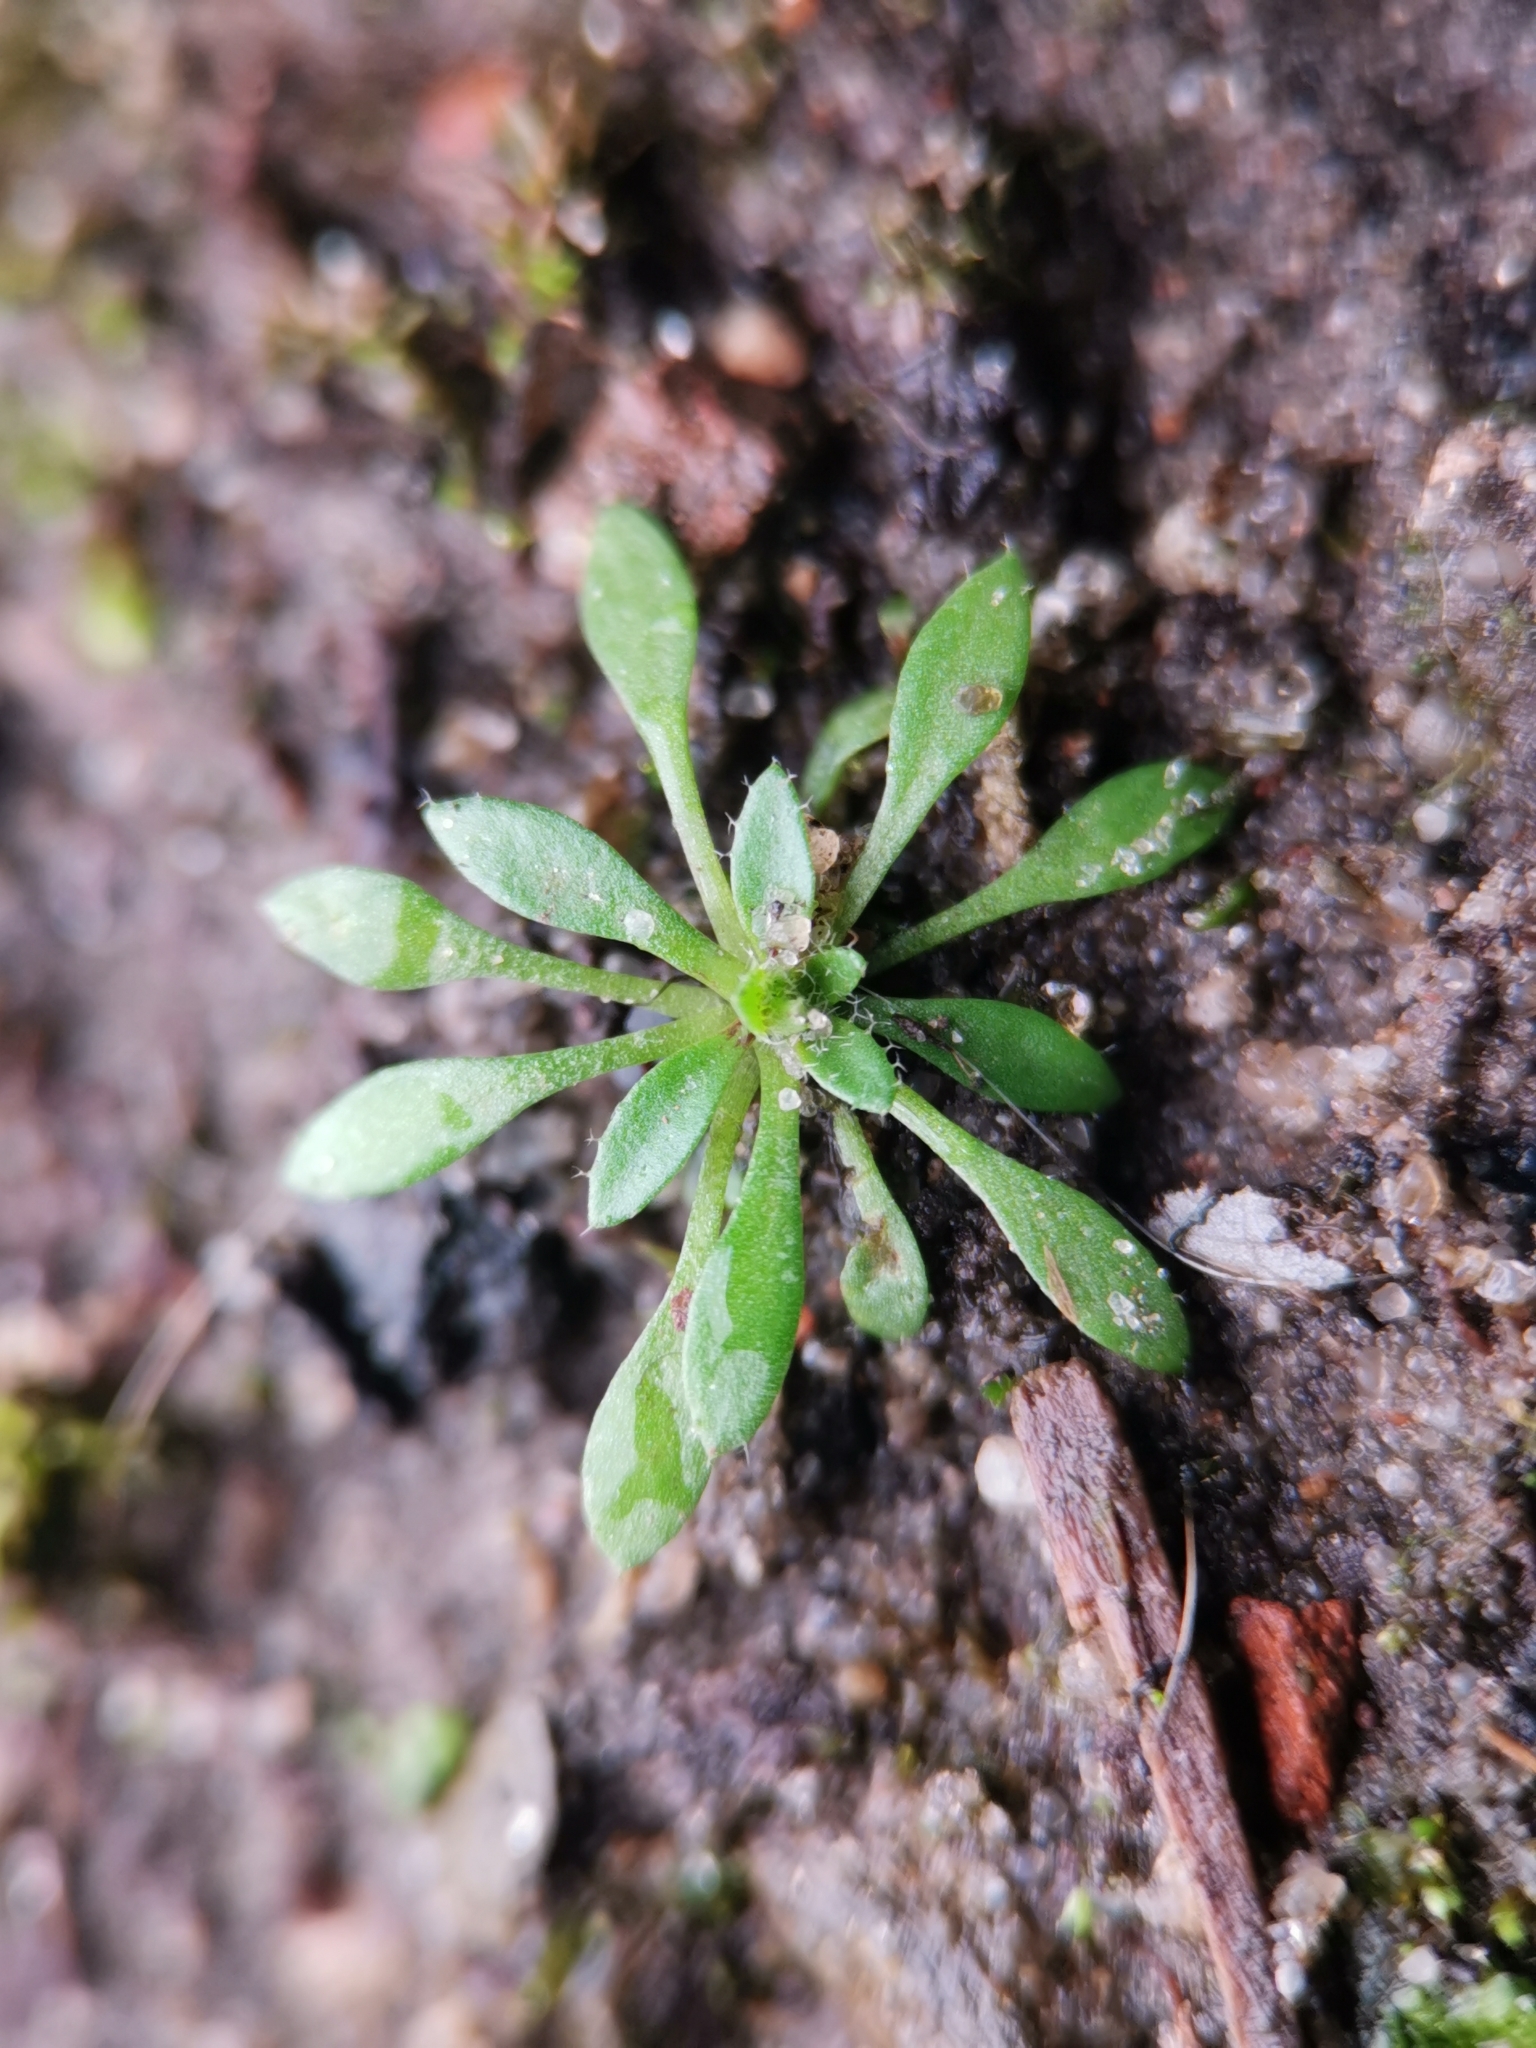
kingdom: Plantae
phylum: Tracheophyta
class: Magnoliopsida
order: Brassicales
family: Brassicaceae
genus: Draba
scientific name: Draba verna
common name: Spring draba
